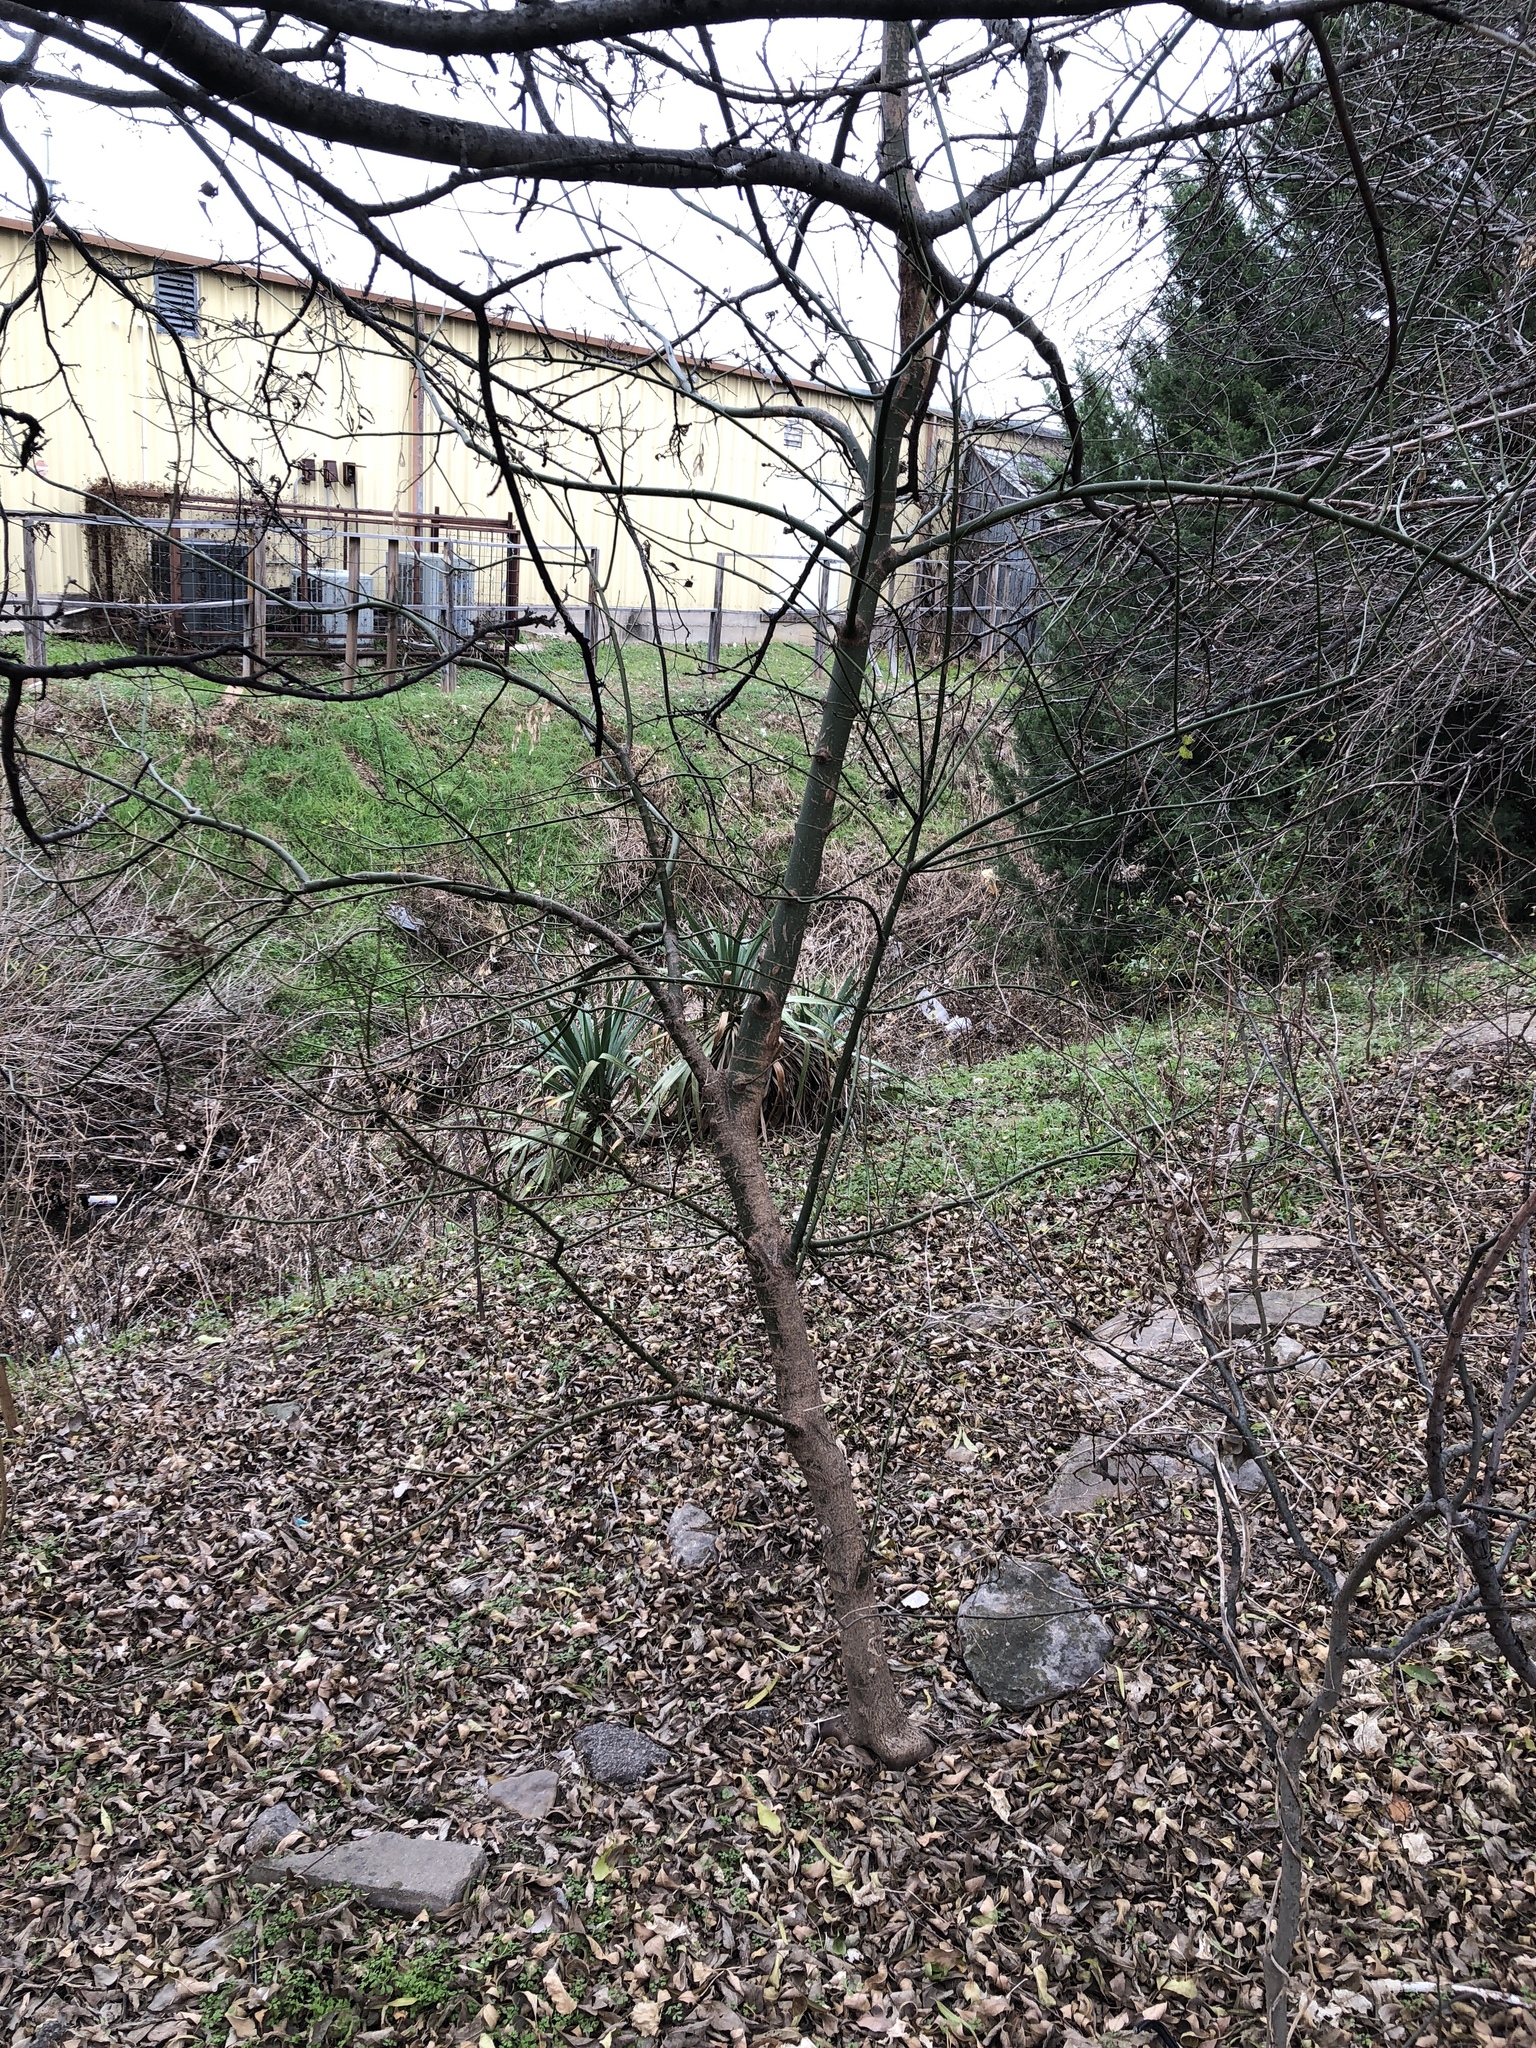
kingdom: Plantae
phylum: Tracheophyta
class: Magnoliopsida
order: Sapindales
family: Sapindaceae
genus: Acer
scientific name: Acer negundo
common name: Ashleaf maple
